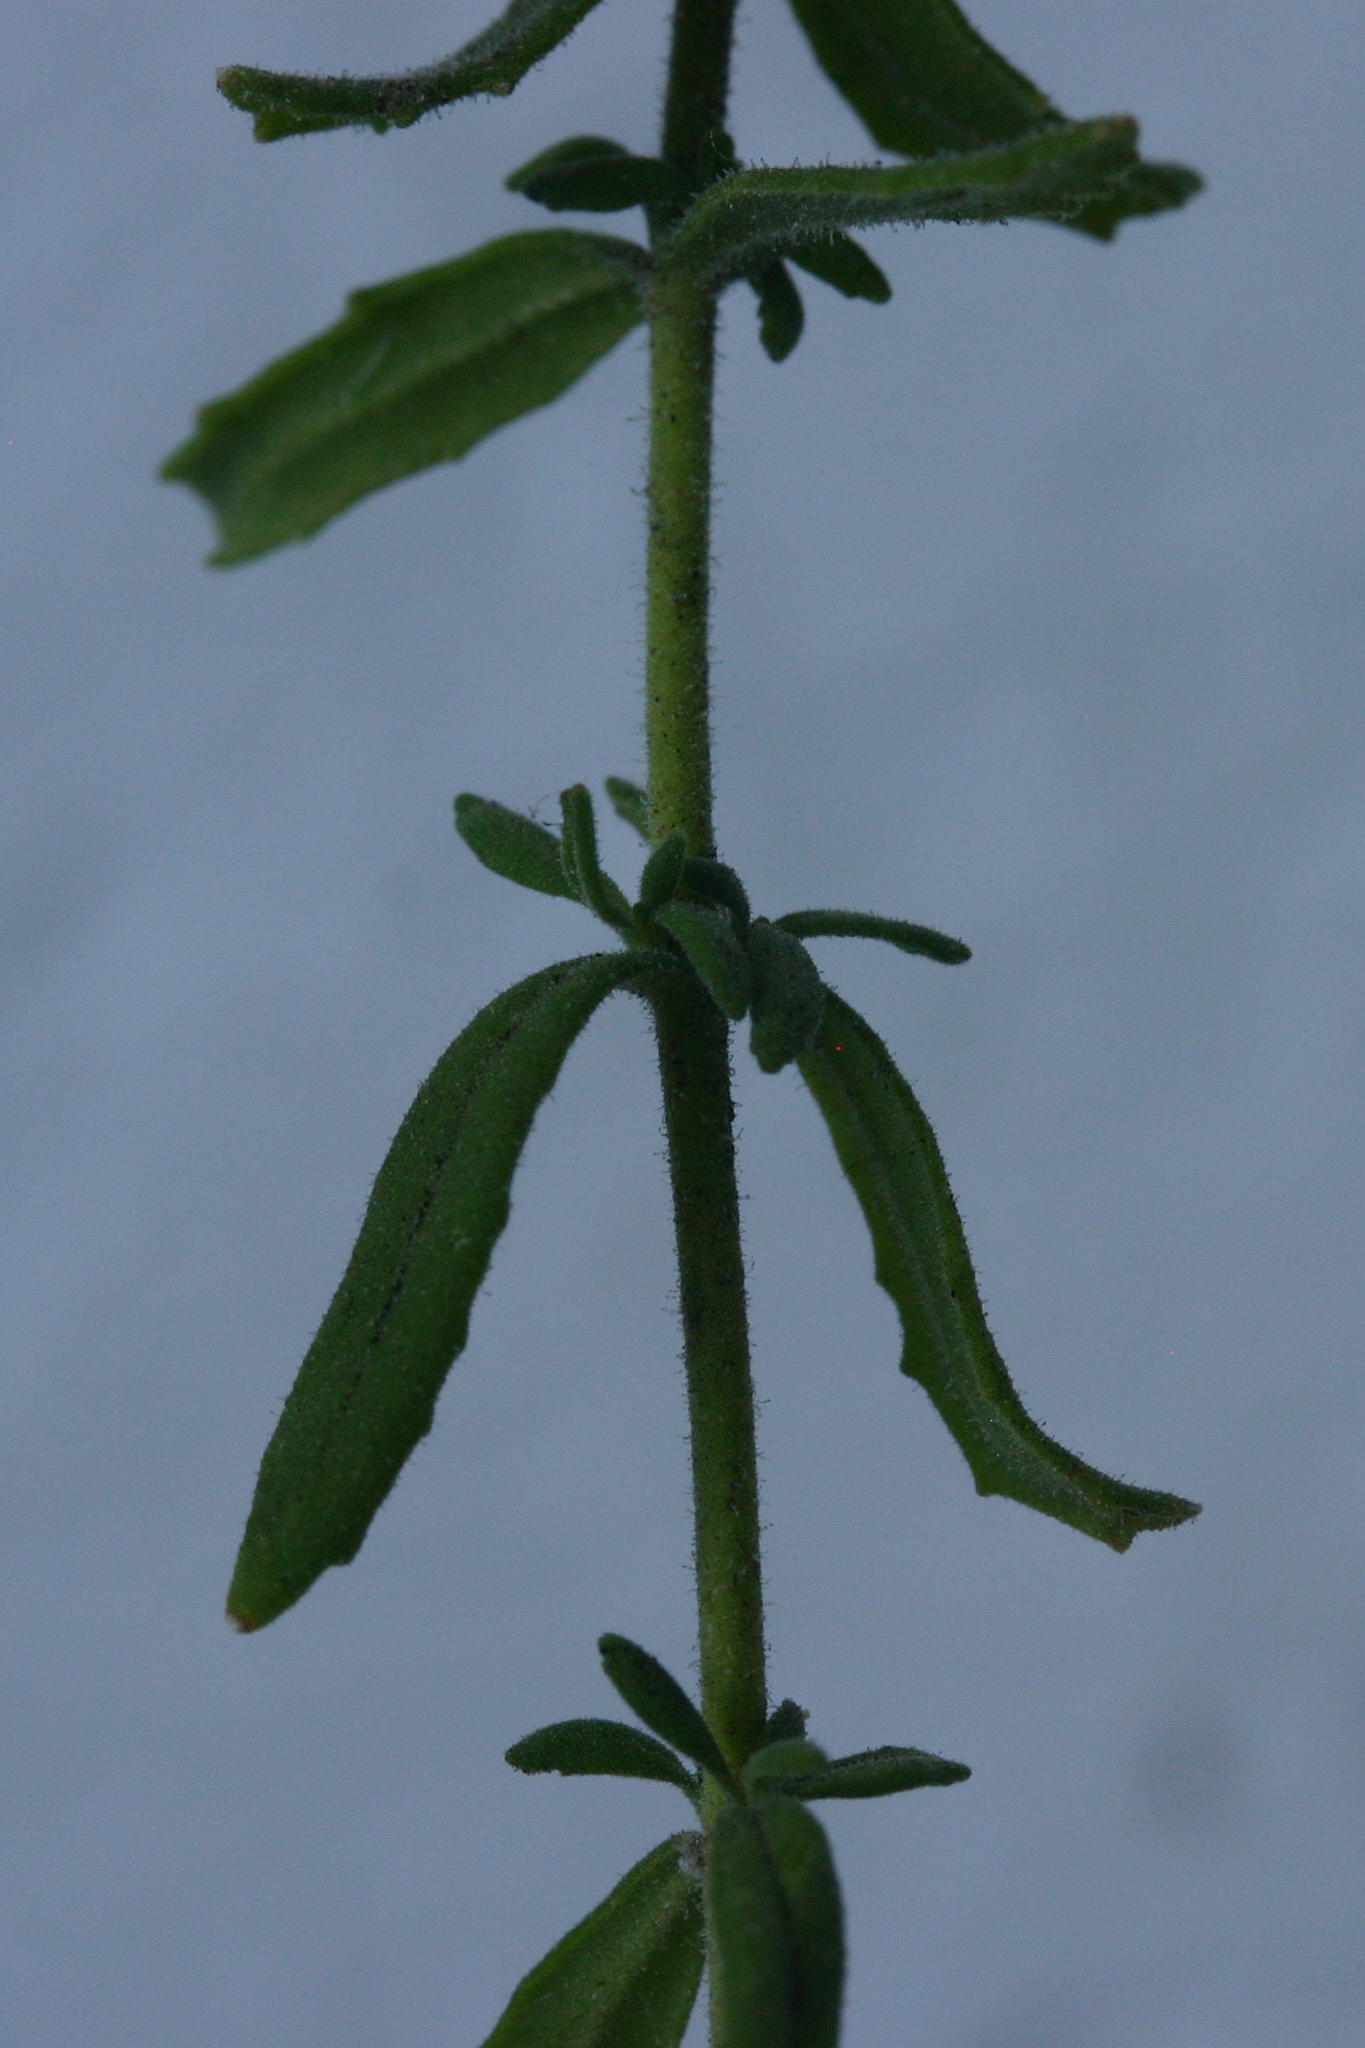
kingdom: Plantae
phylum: Tracheophyta
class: Magnoliopsida
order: Lamiales
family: Scrophulariaceae
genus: Chaenostoma
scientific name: Chaenostoma caeruleum
